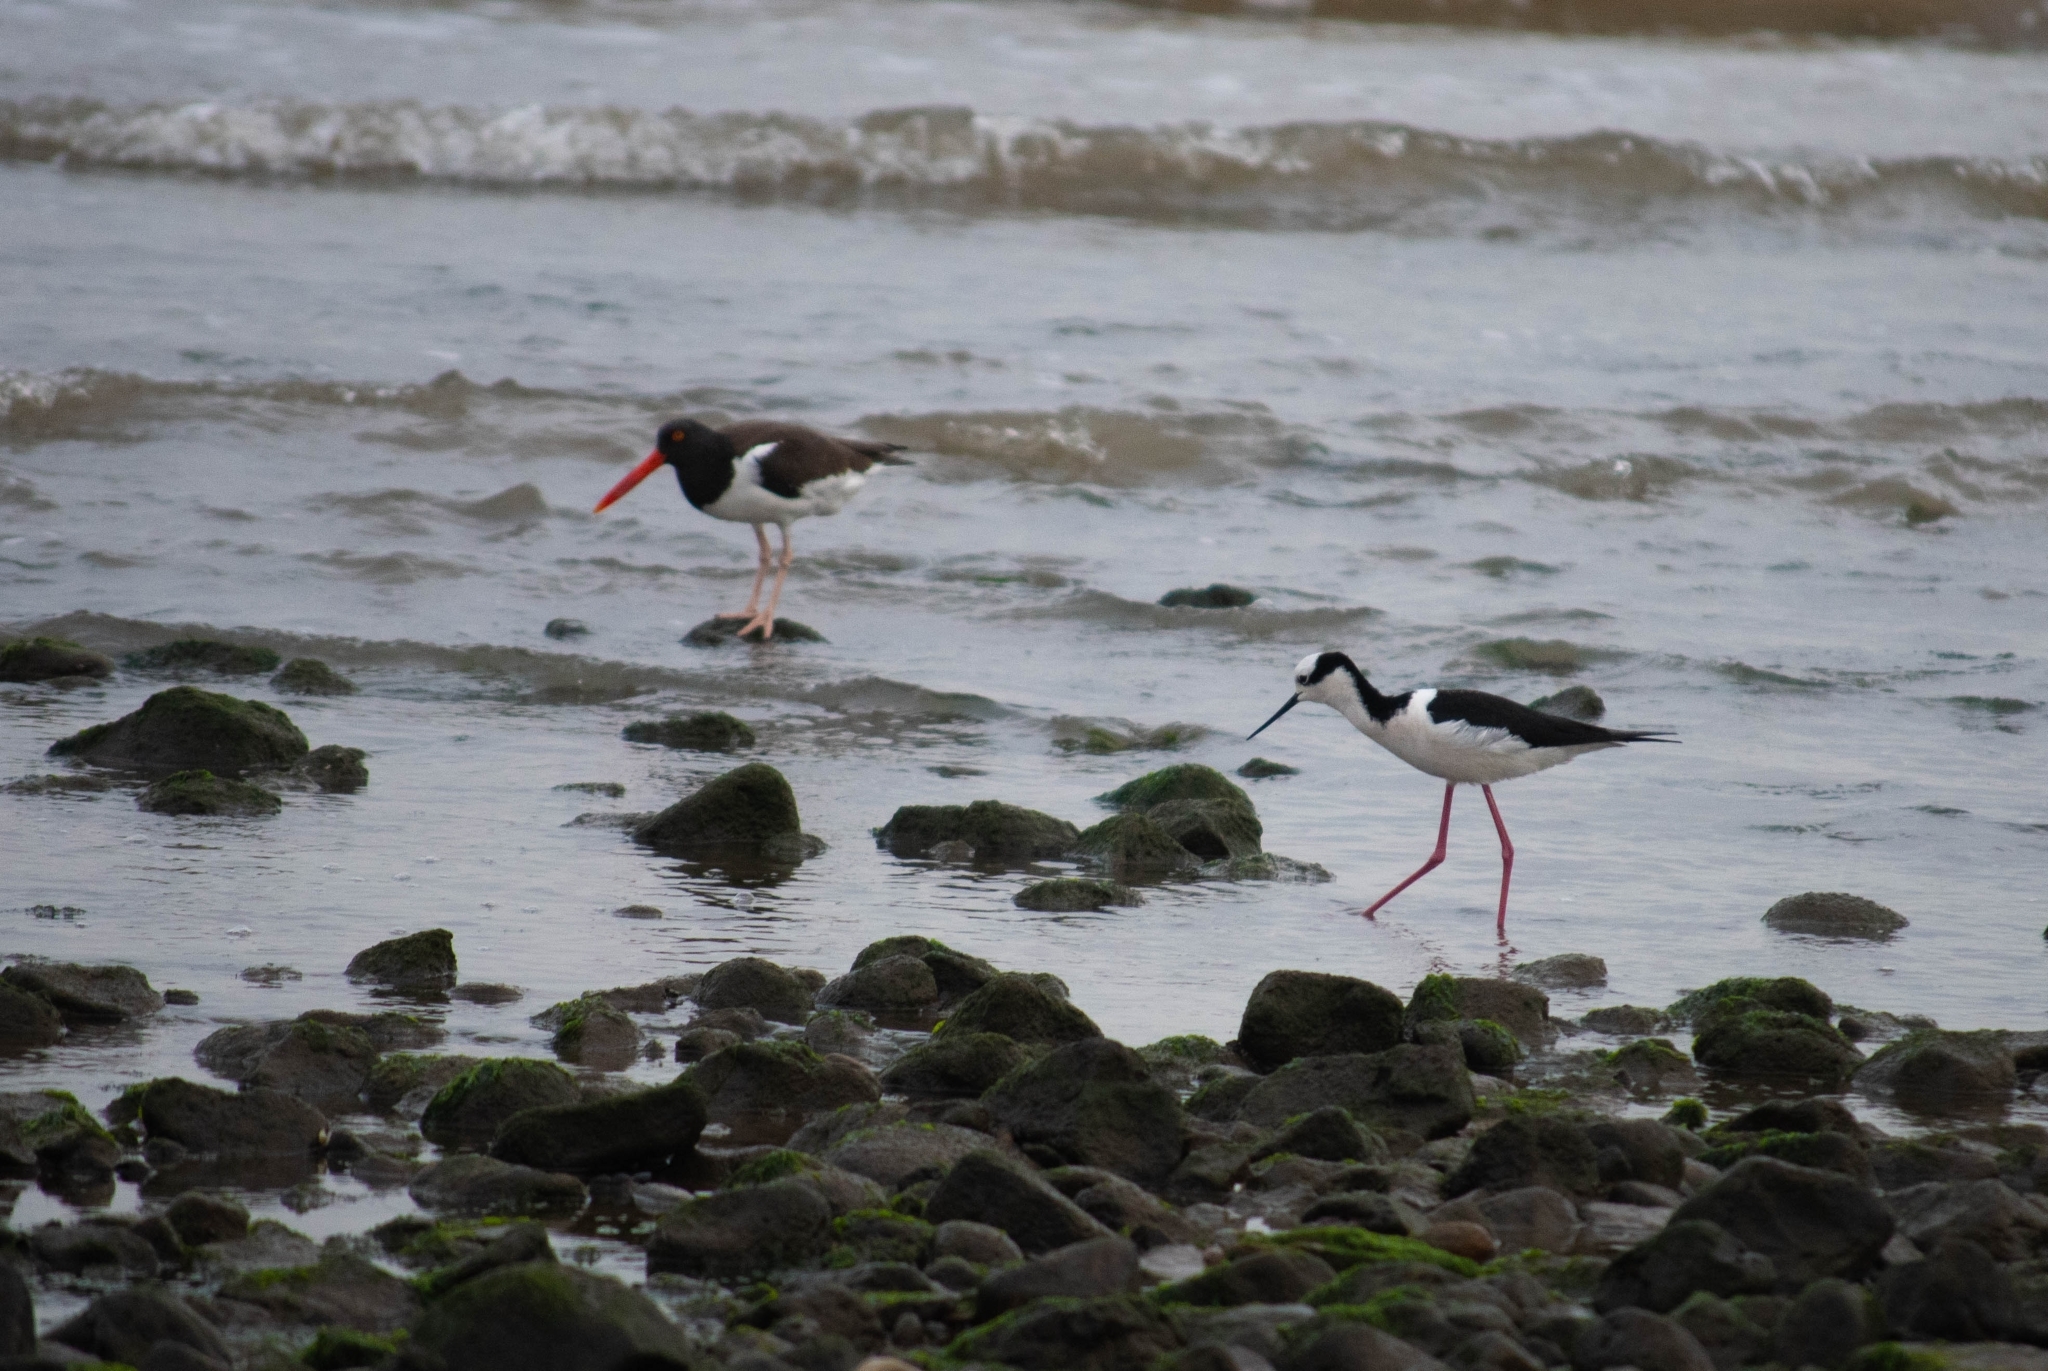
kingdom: Animalia
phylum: Chordata
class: Aves
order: Charadriiformes
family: Recurvirostridae
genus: Himantopus
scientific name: Himantopus mexicanus
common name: Black-necked stilt
